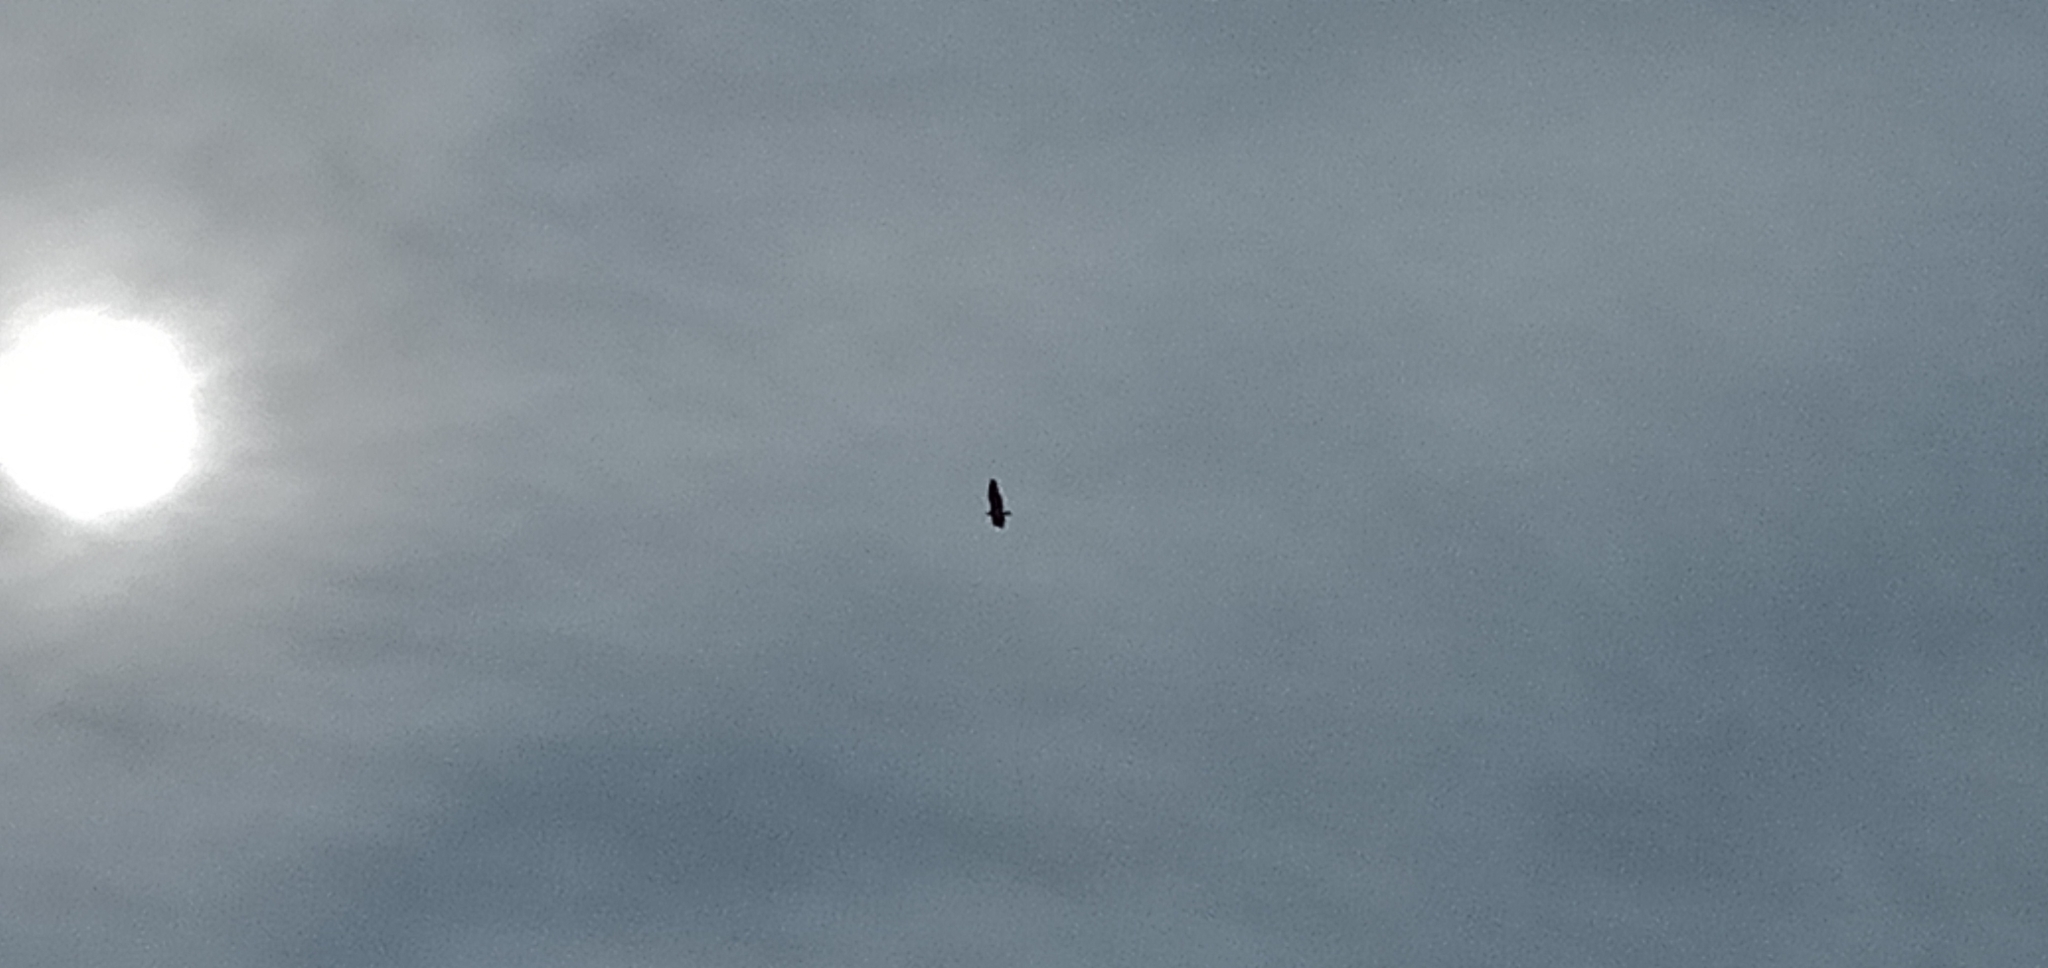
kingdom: Animalia
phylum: Chordata
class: Aves
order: Accipitriformes
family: Accipitridae
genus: Haliaeetus
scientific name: Haliaeetus leucogaster
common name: White-bellied sea eagle
